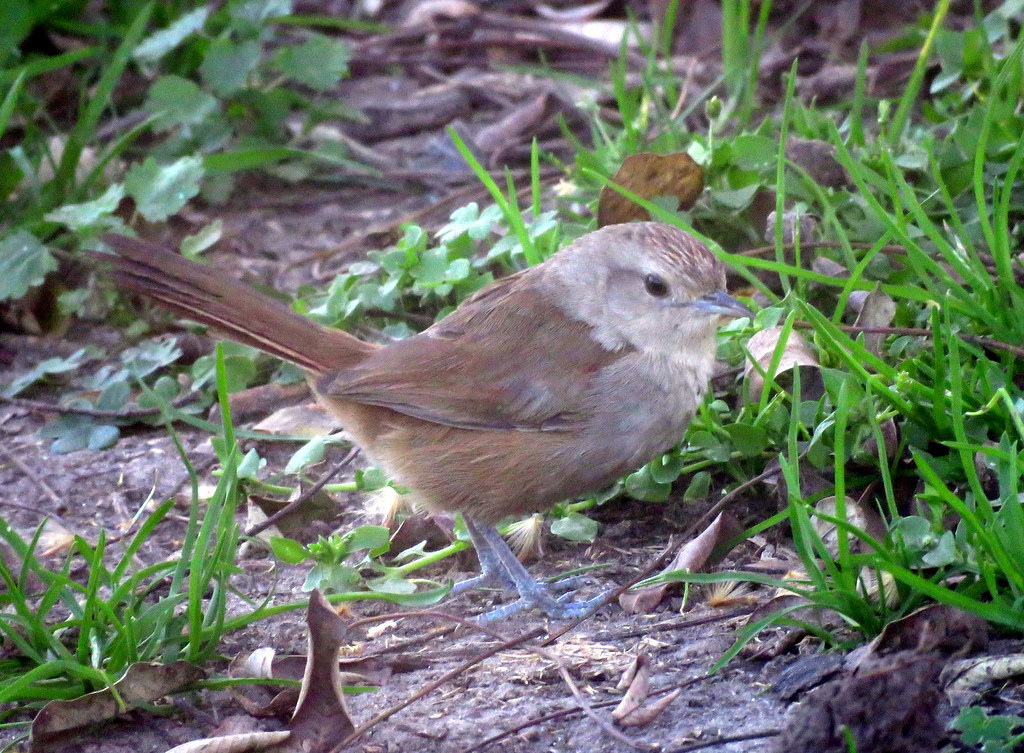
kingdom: Animalia
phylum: Chordata
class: Aves
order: Passeriformes
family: Furnariidae
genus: Phacellodomus
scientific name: Phacellodomus sibilatrix
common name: Little thornbird
